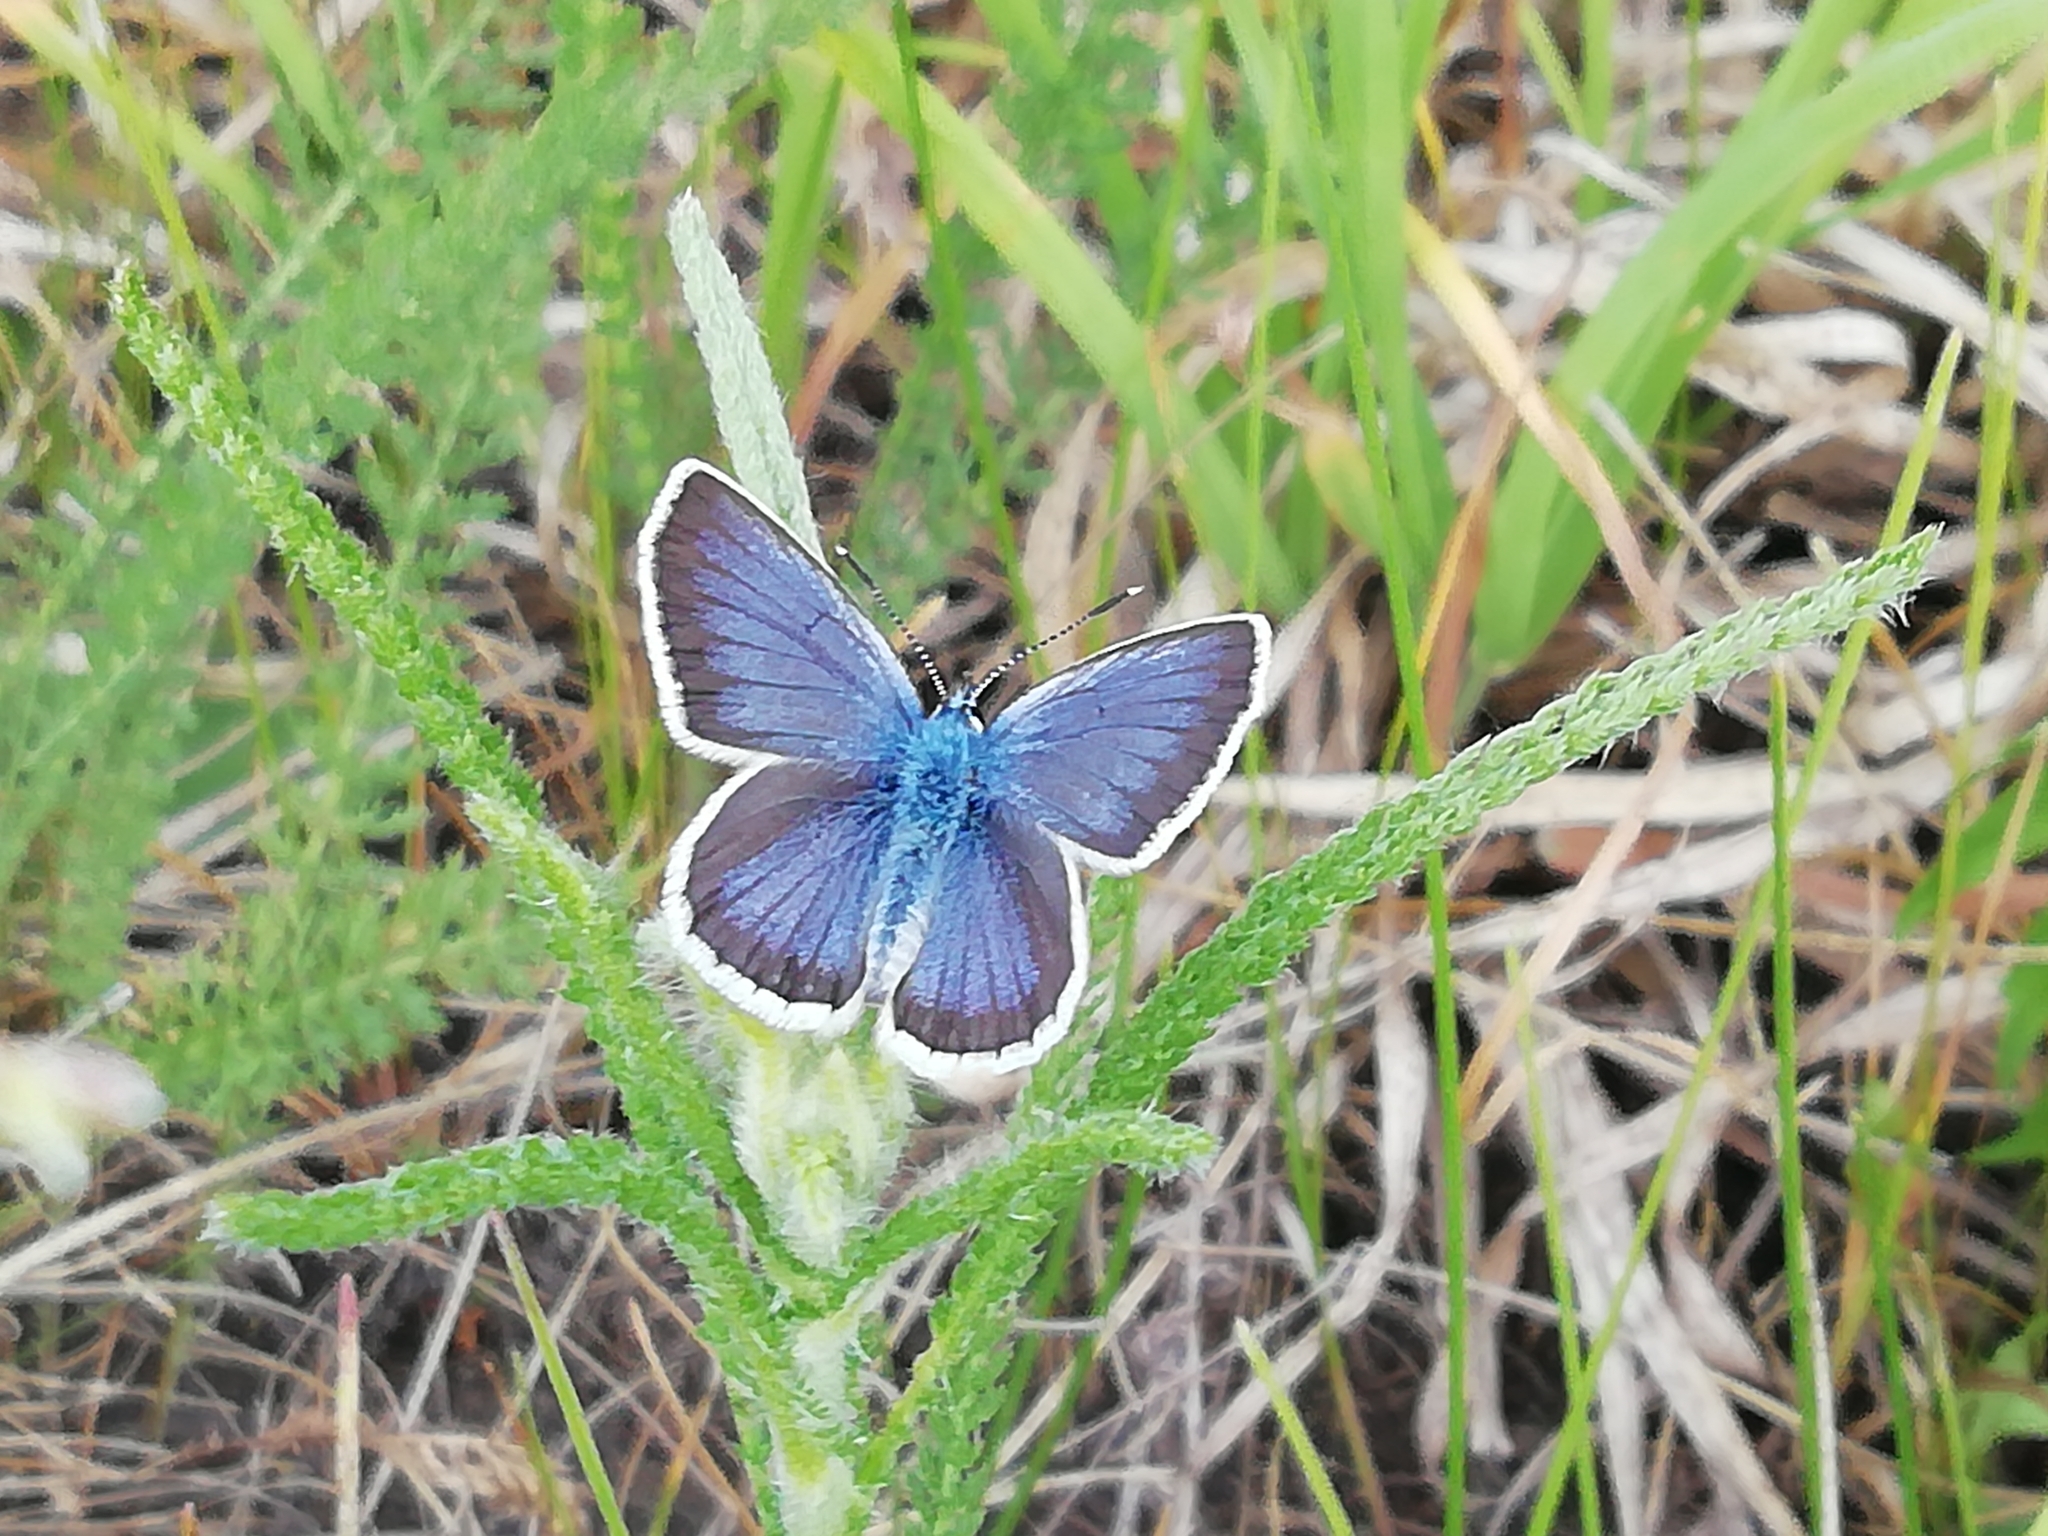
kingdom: Animalia
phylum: Arthropoda
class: Insecta
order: Lepidoptera
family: Lycaenidae
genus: Plebejus
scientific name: Plebejus argus
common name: Silver-studded blue
